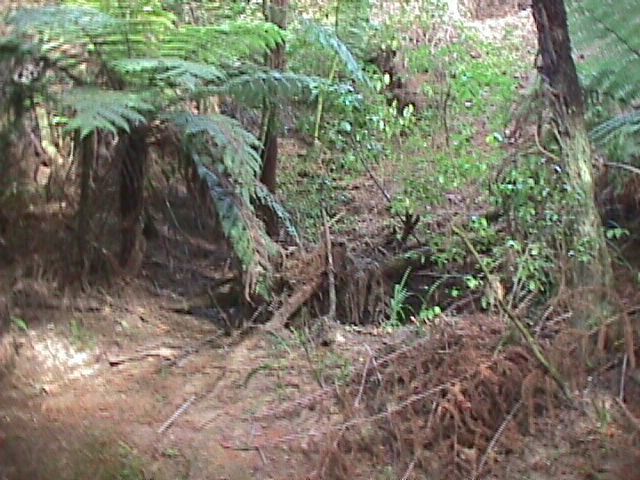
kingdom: Plantae
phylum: Tracheophyta
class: Polypodiopsida
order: Cyatheales
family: Cyatheaceae
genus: Alsophila
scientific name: Alsophila dealbata
